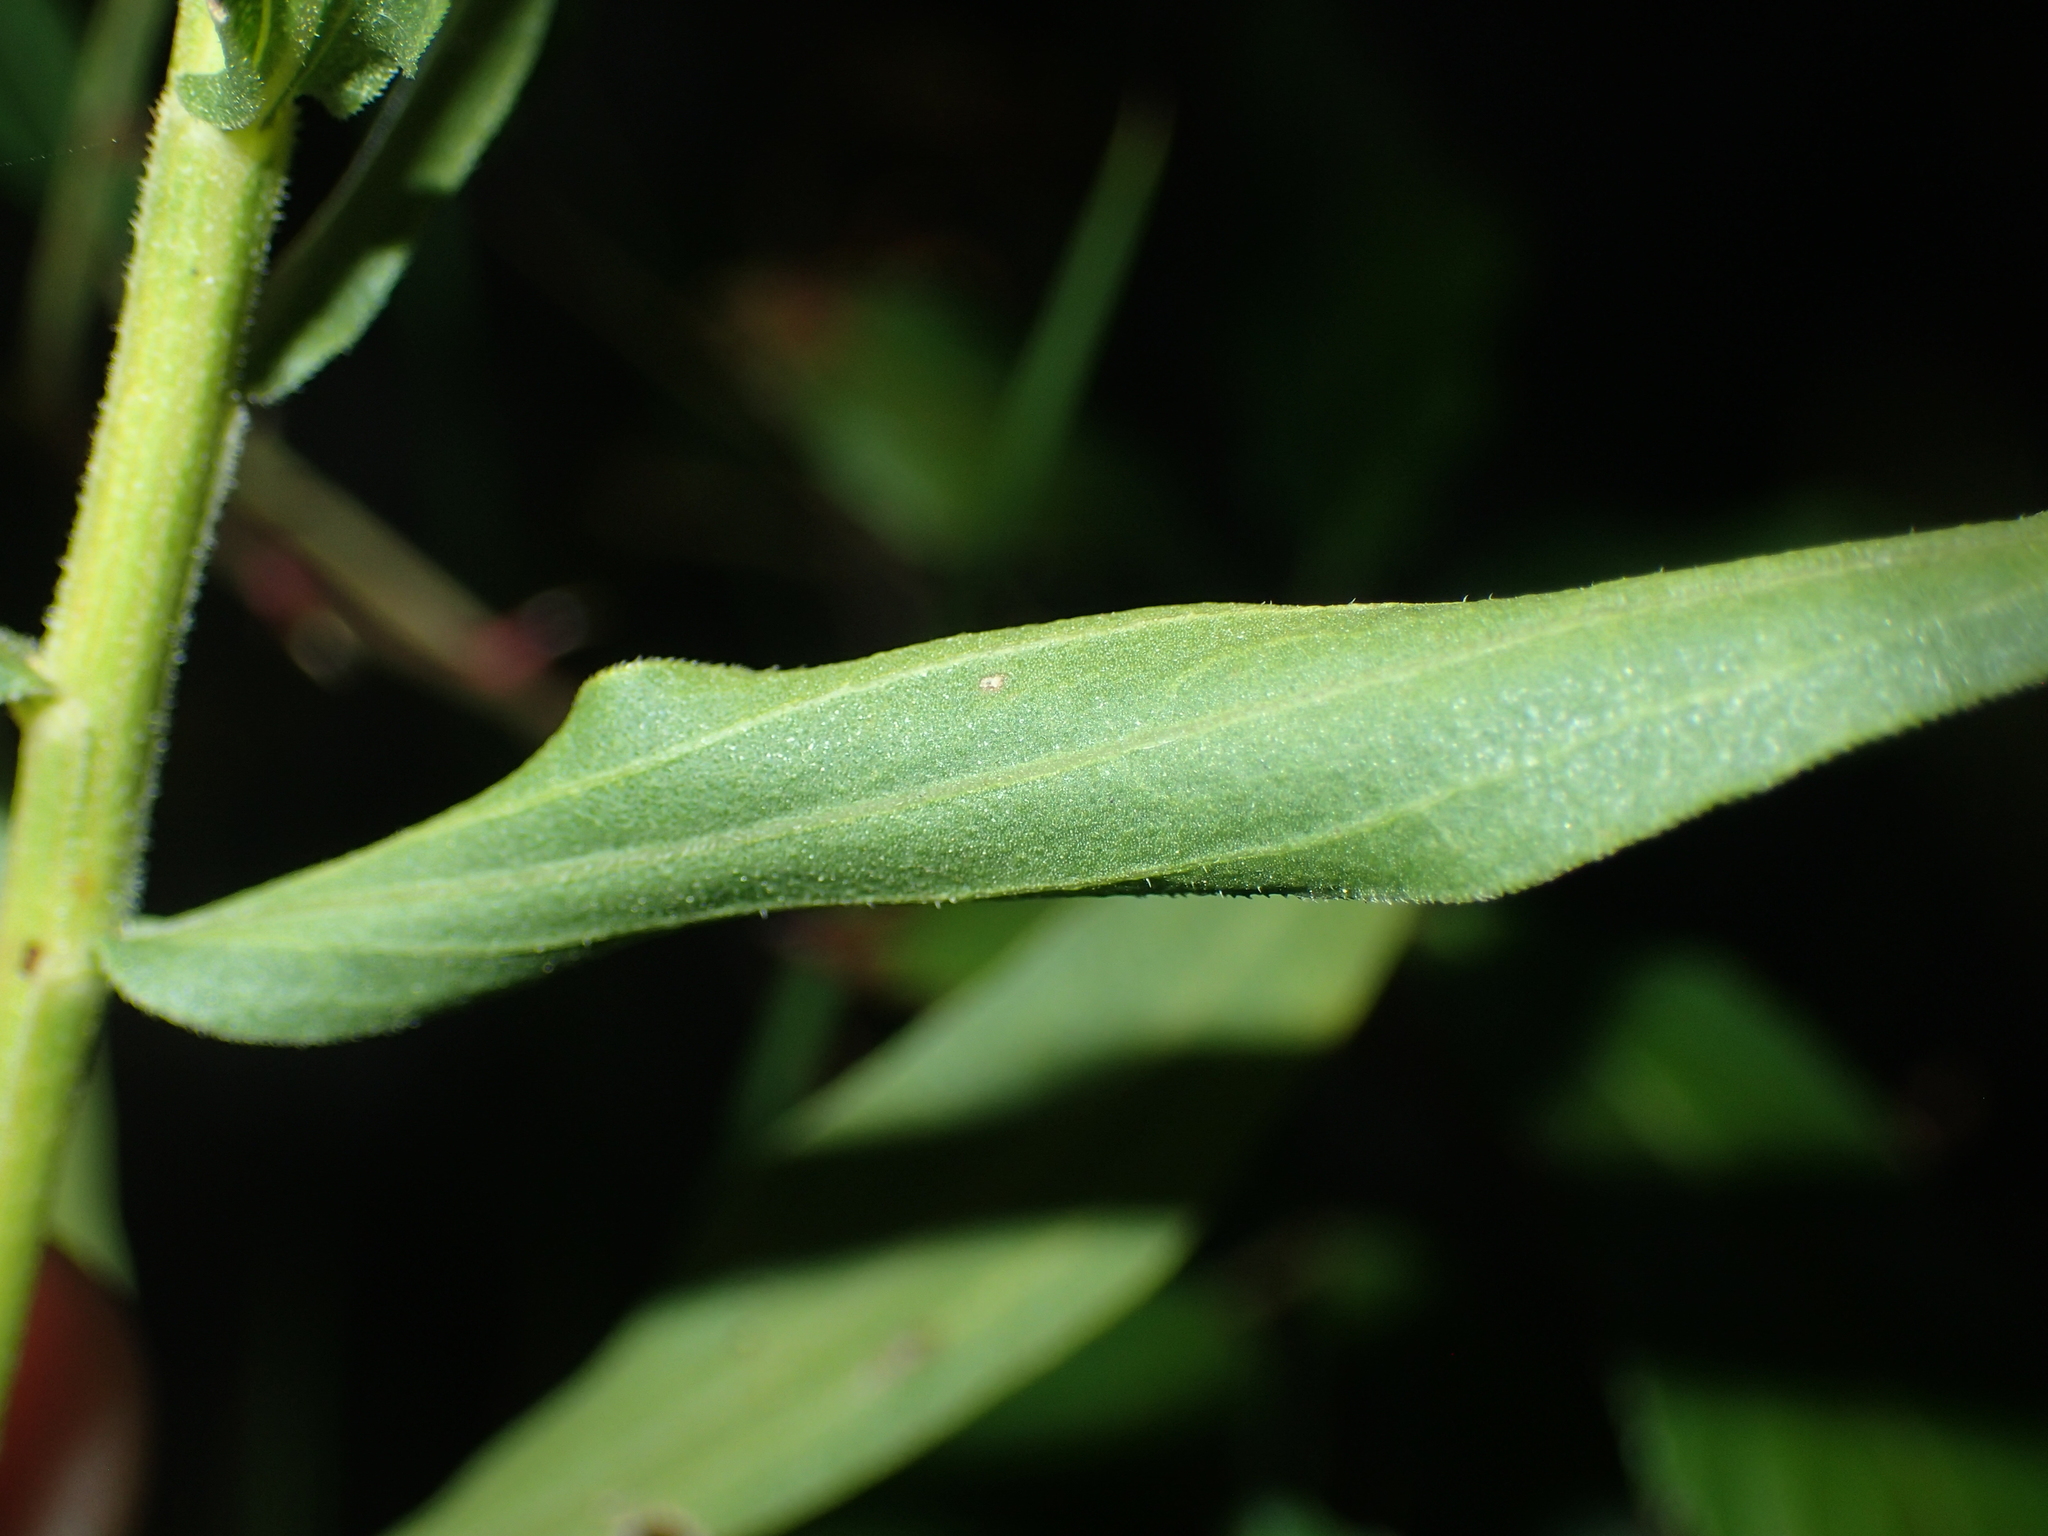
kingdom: Plantae
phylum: Tracheophyta
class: Magnoliopsida
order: Asterales
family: Asteraceae
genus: Euthamia
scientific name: Euthamia scabra
